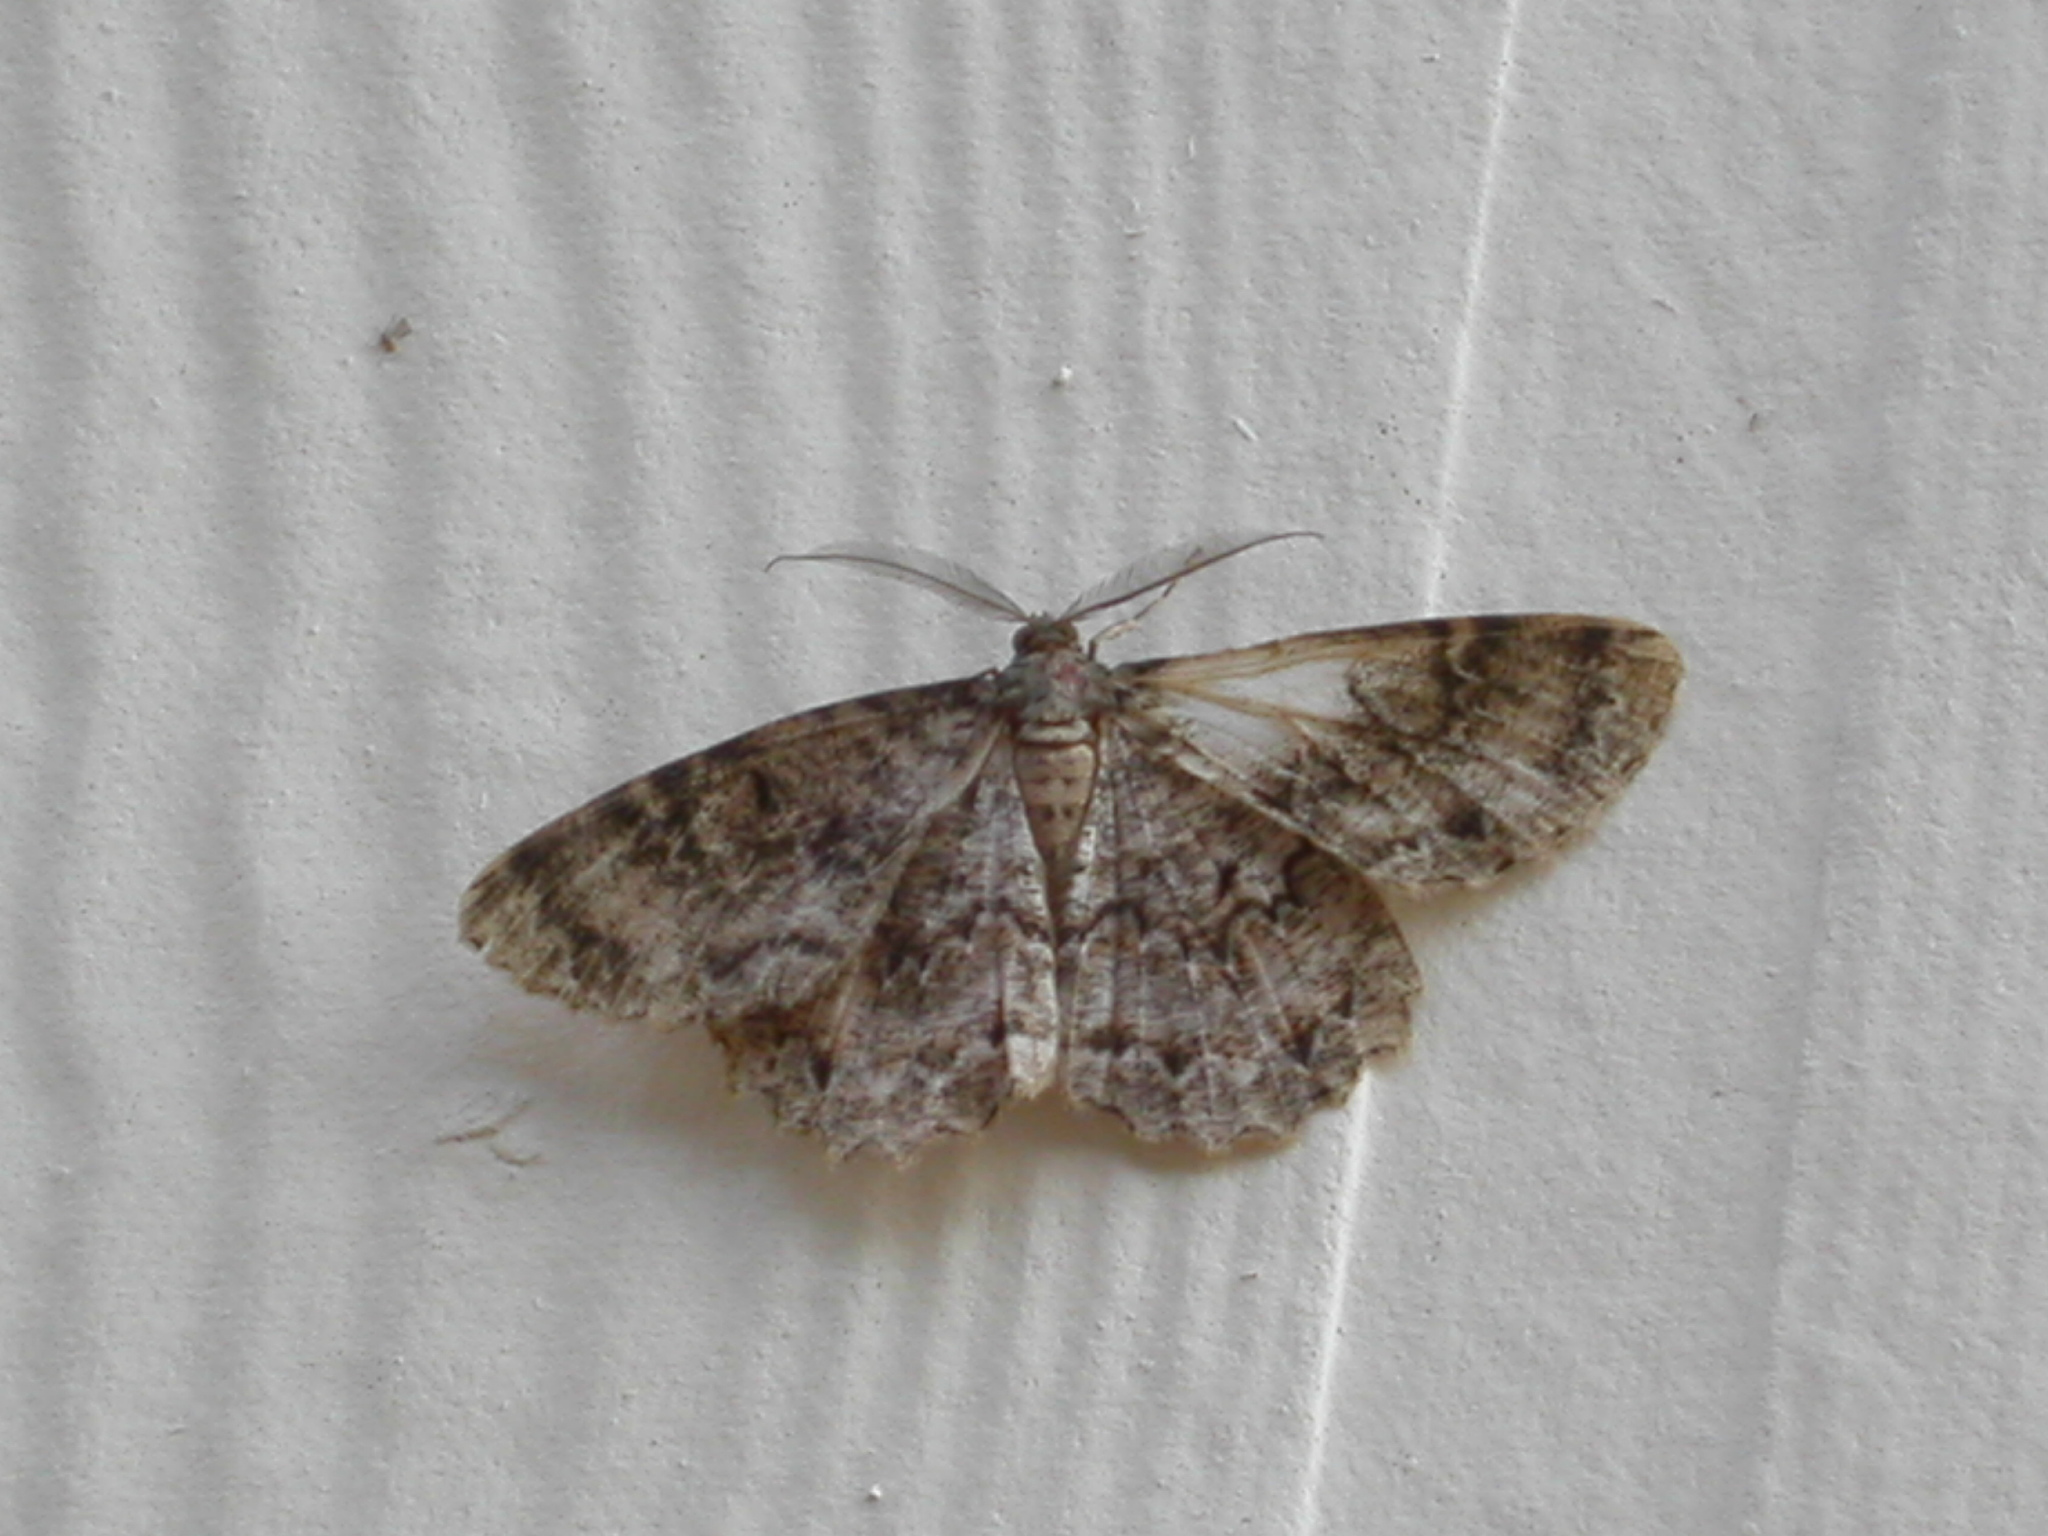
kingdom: Animalia
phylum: Arthropoda
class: Insecta
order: Lepidoptera
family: Geometridae
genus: Epimecis
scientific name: Epimecis hortaria
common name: Tulip-tree beauty
